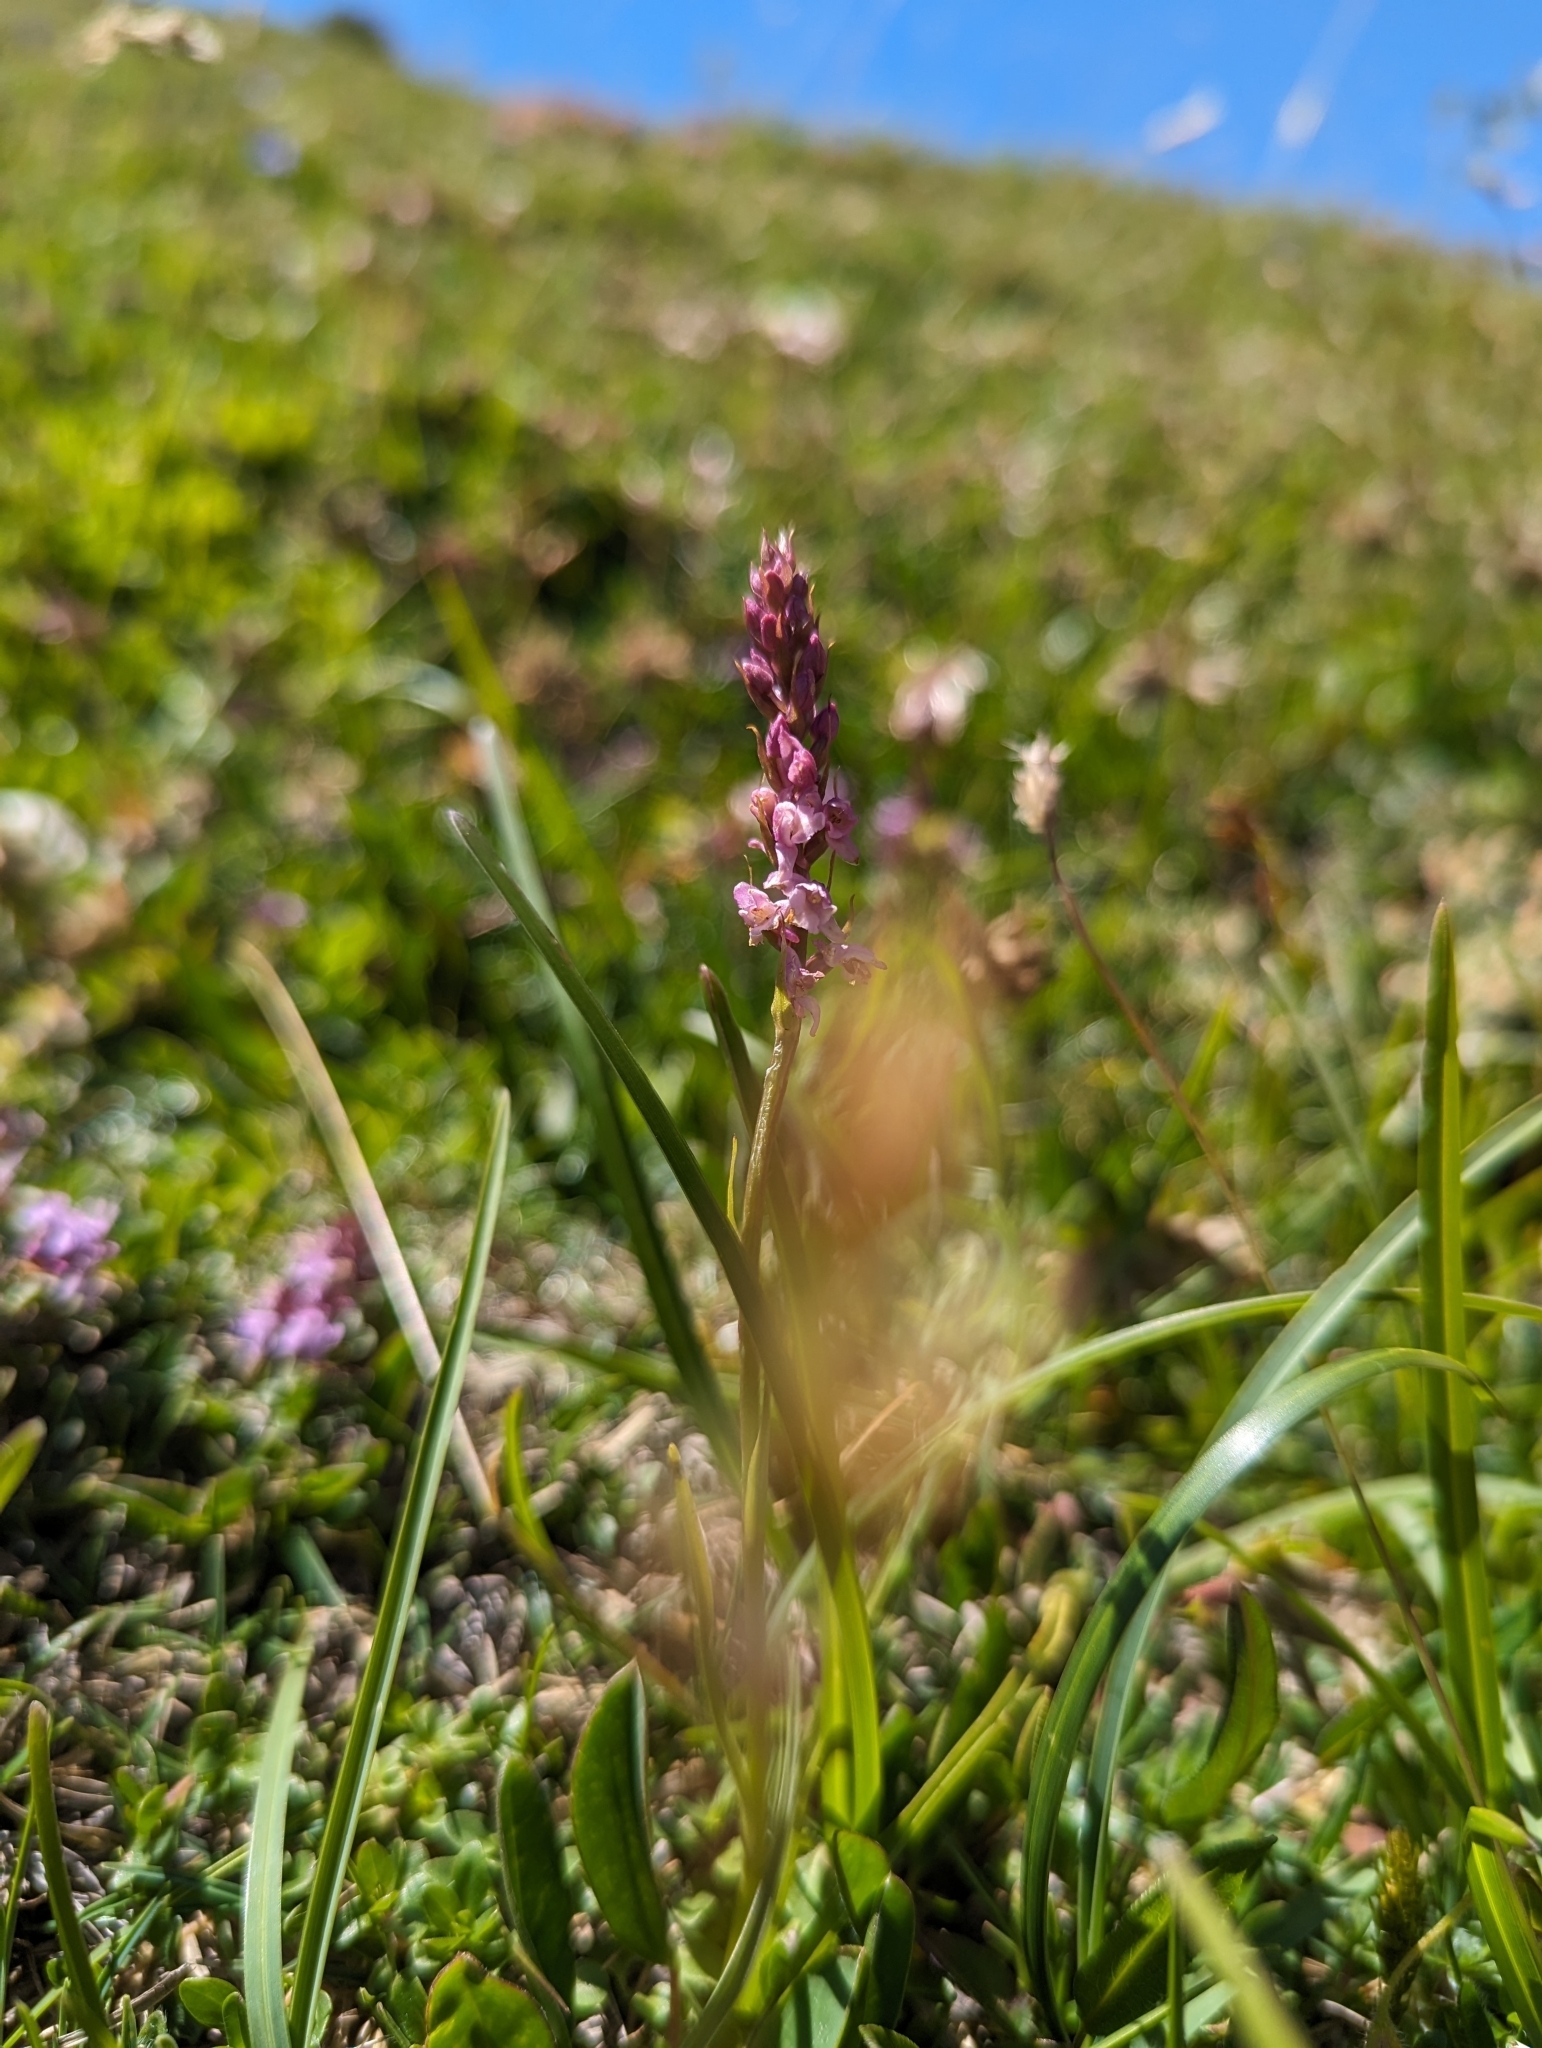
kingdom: Plantae
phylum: Tracheophyta
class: Liliopsida
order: Asparagales
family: Orchidaceae
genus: Gymnadenia
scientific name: Gymnadenia odoratissima
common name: Scented gymnadenia
